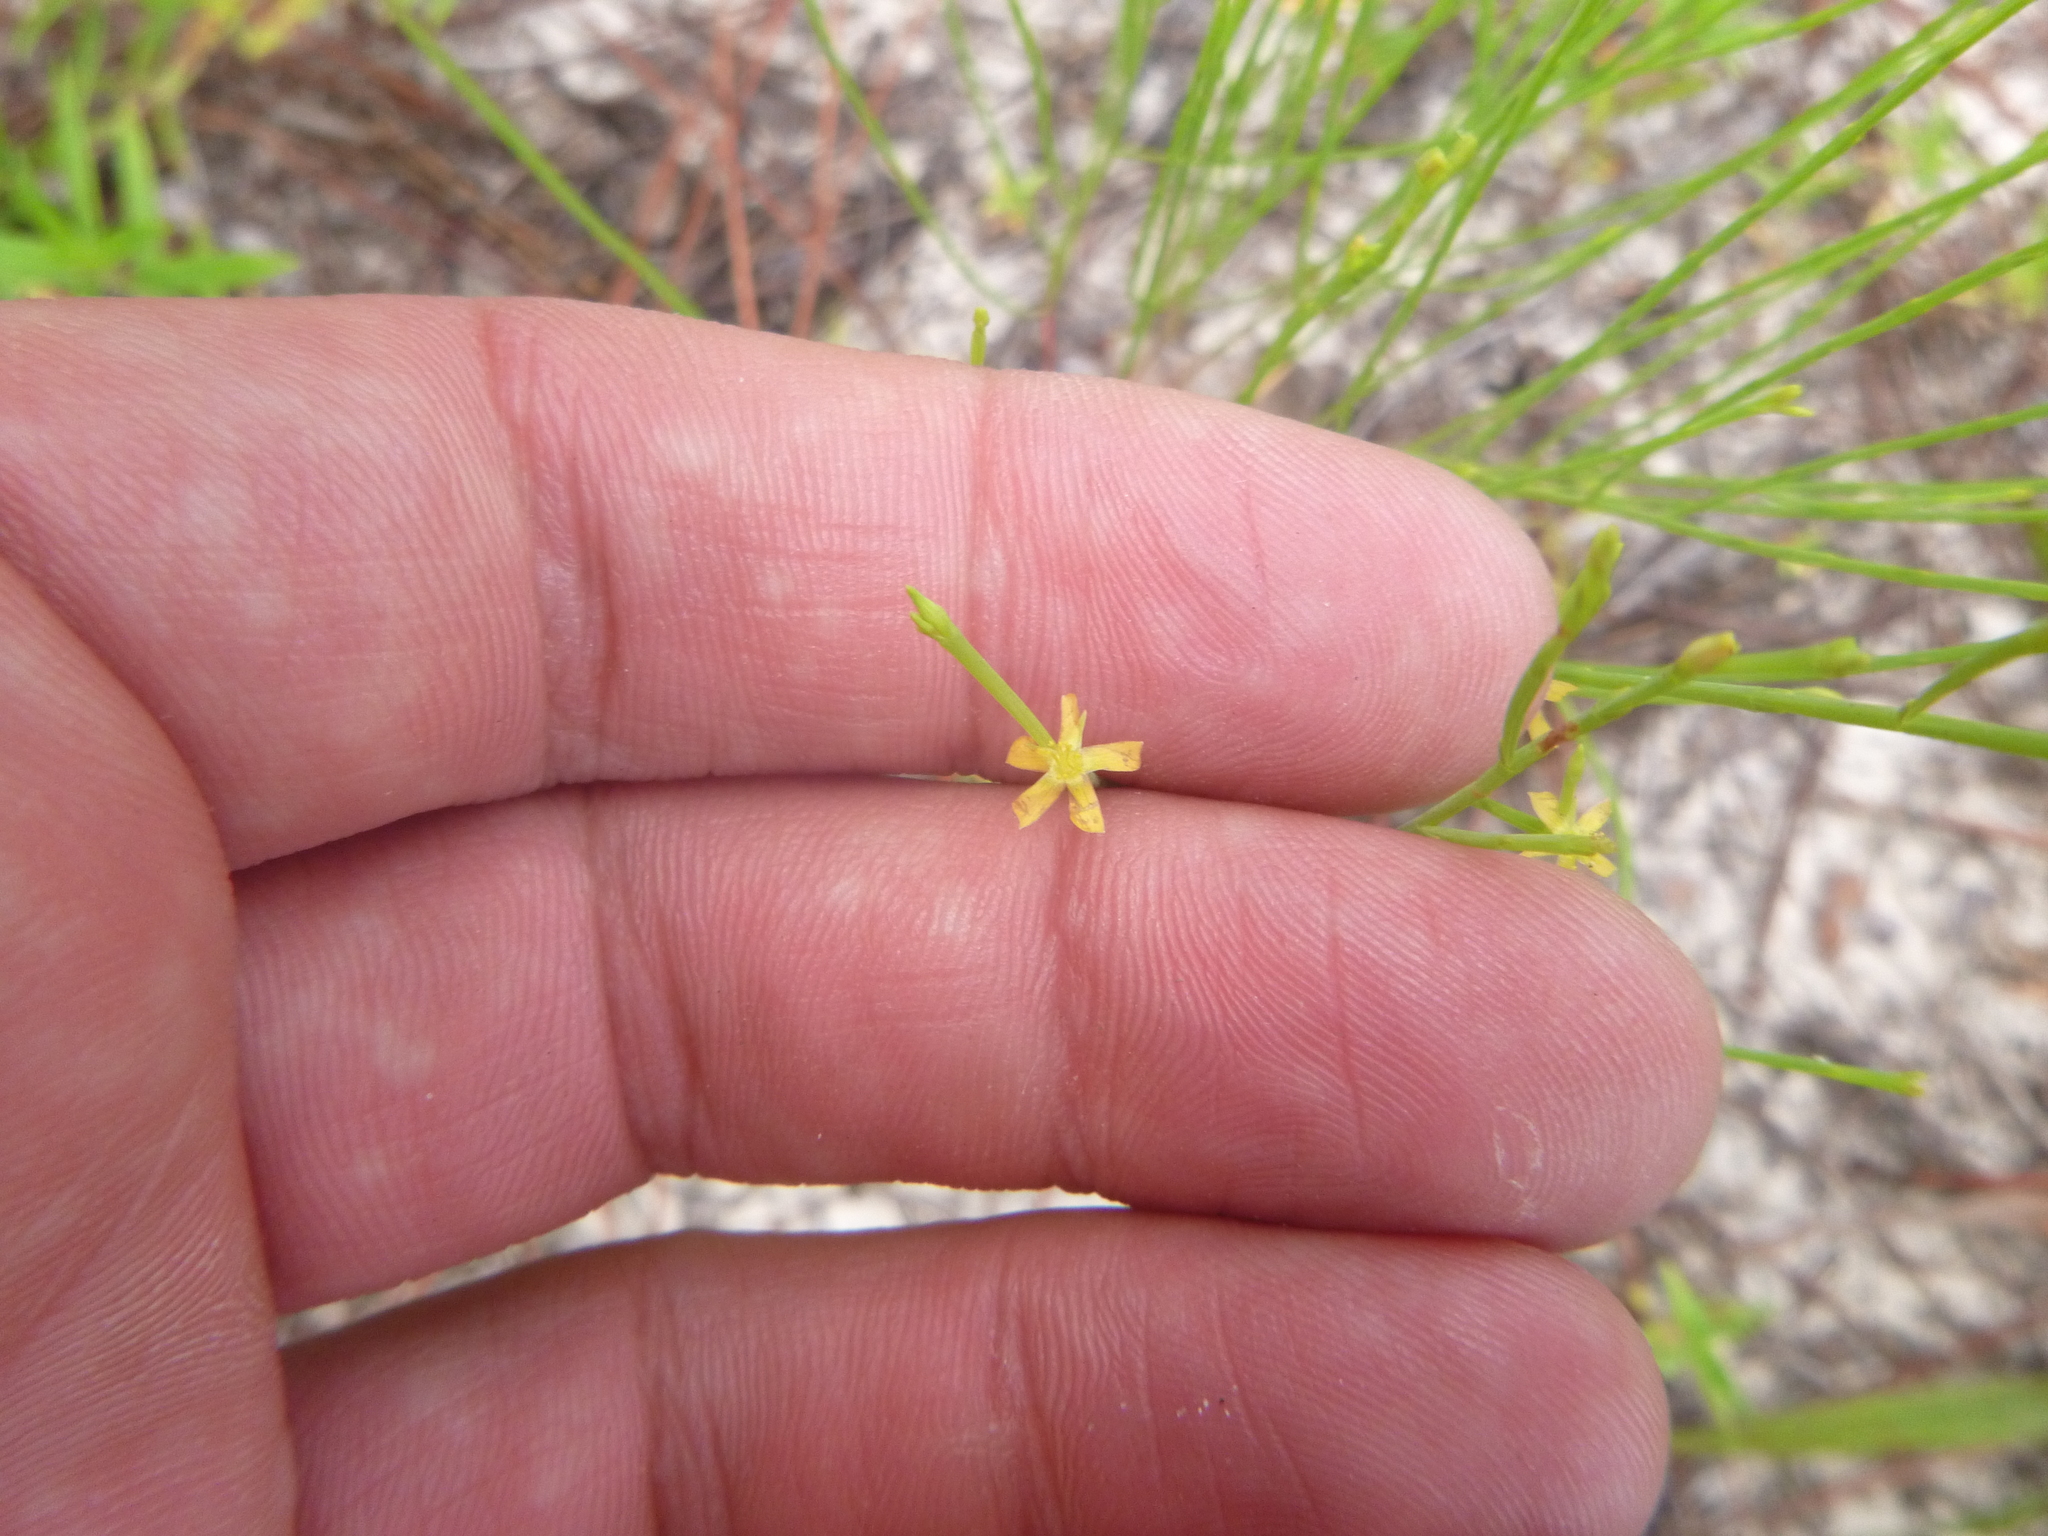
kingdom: Plantae
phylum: Tracheophyta
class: Magnoliopsida
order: Malpighiales
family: Hypericaceae
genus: Hypericum
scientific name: Hypericum gentianoides
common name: Gentian-leaved st. john's-wort
